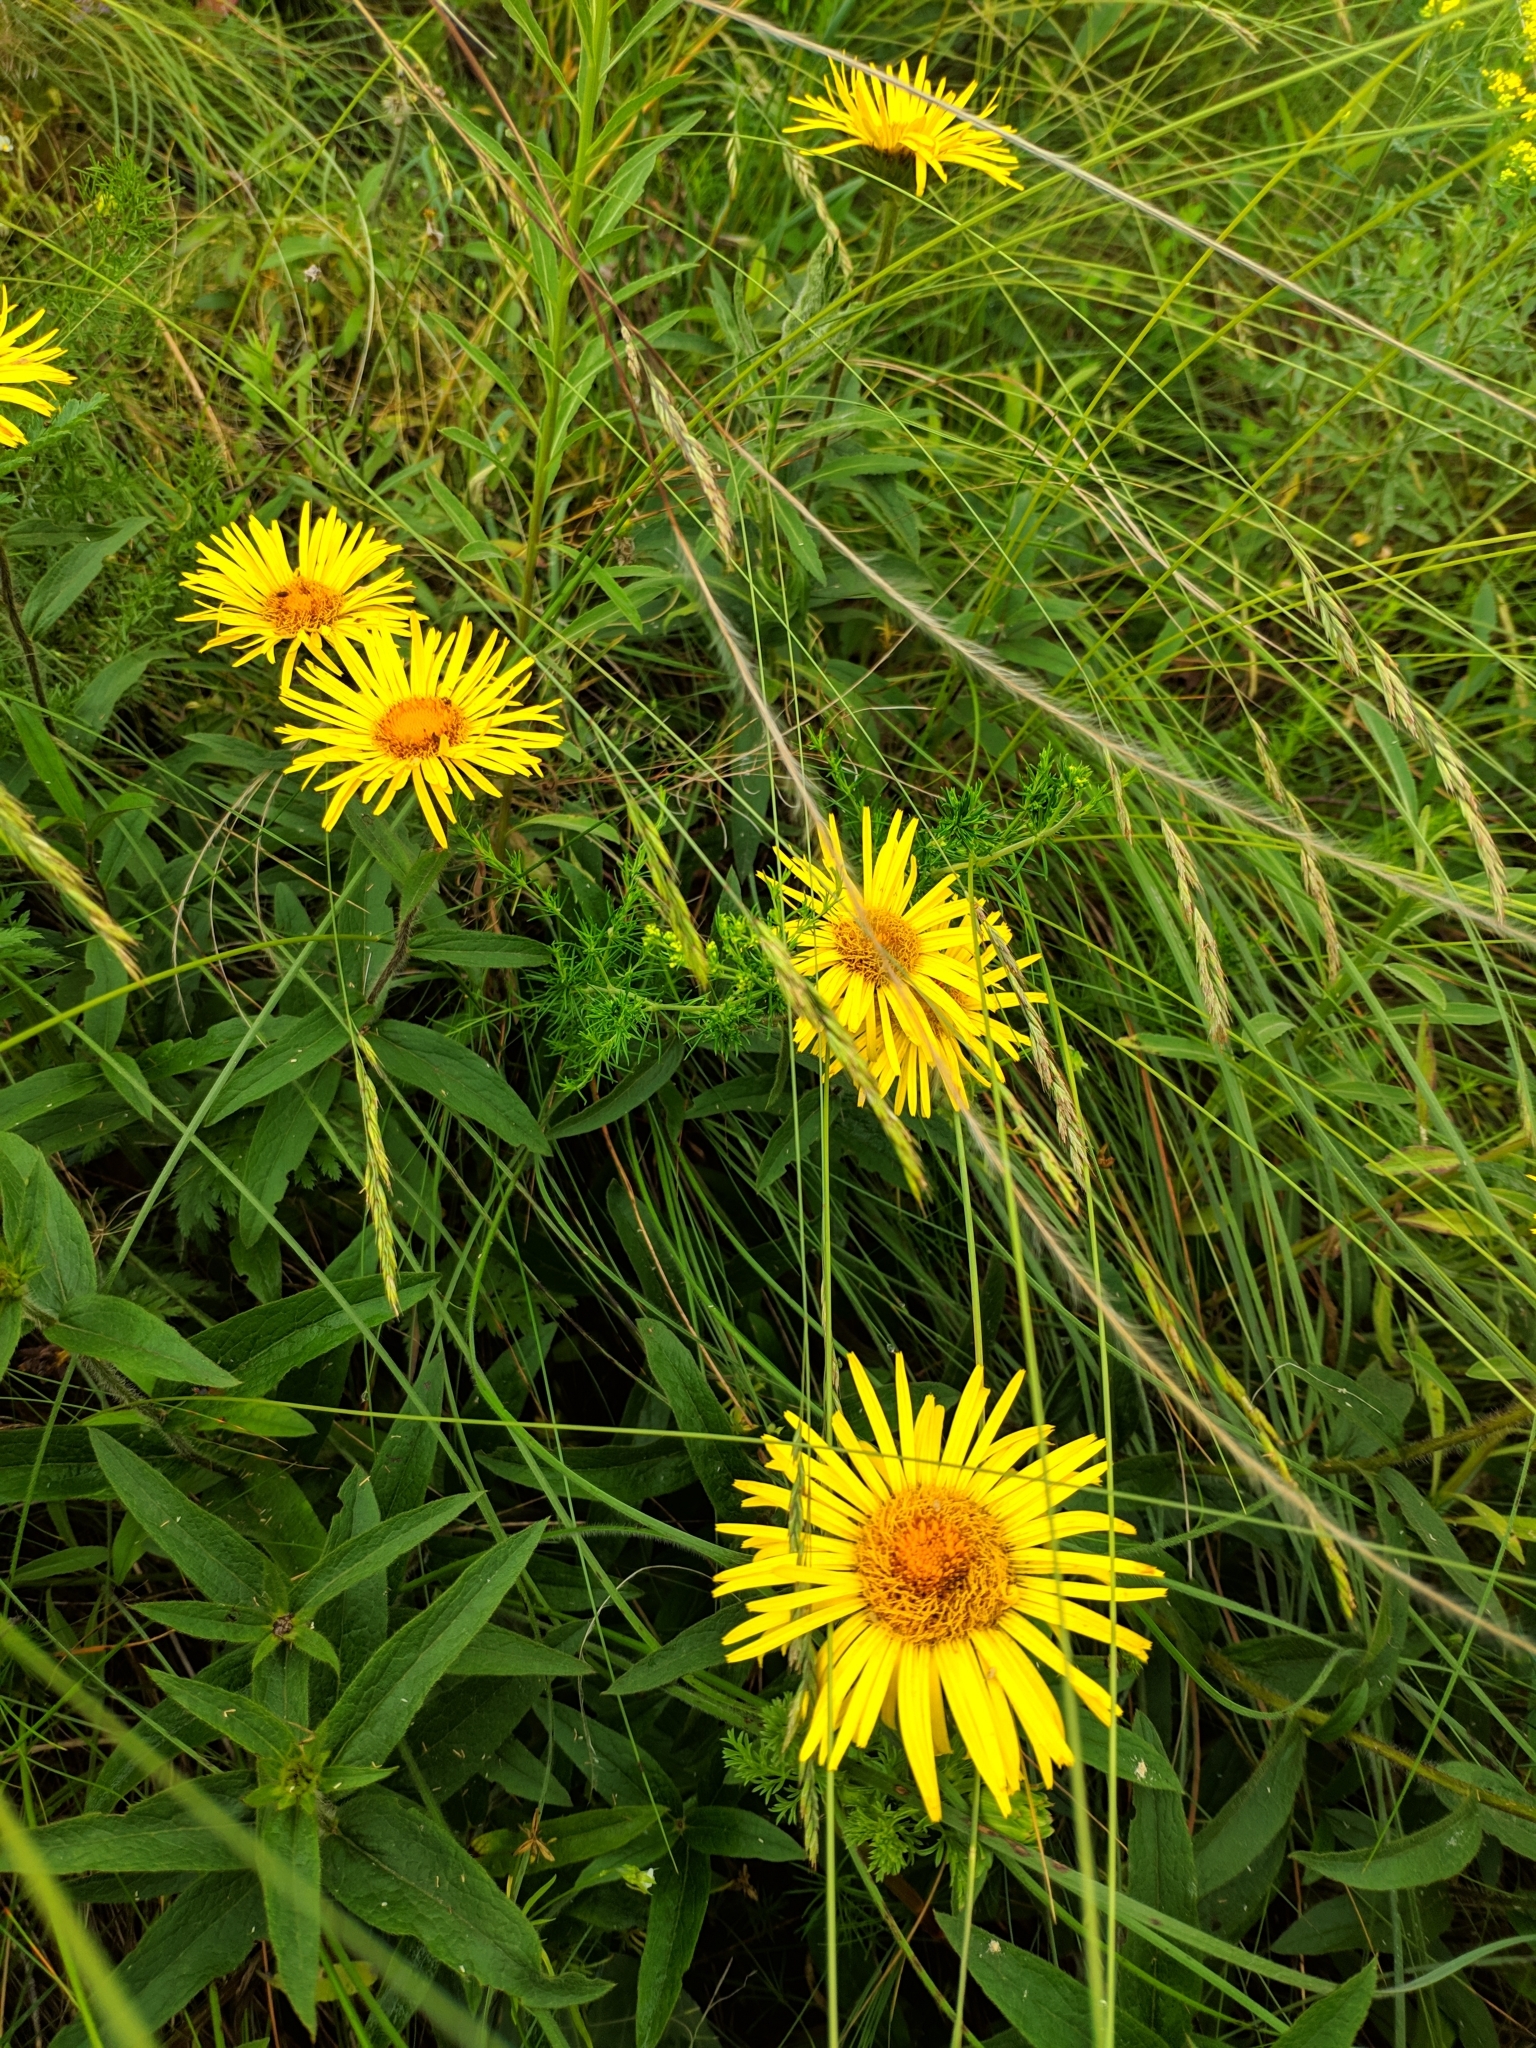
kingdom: Plantae
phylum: Tracheophyta
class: Magnoliopsida
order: Asterales
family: Asteraceae
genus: Pentanema
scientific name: Pentanema hirtum
